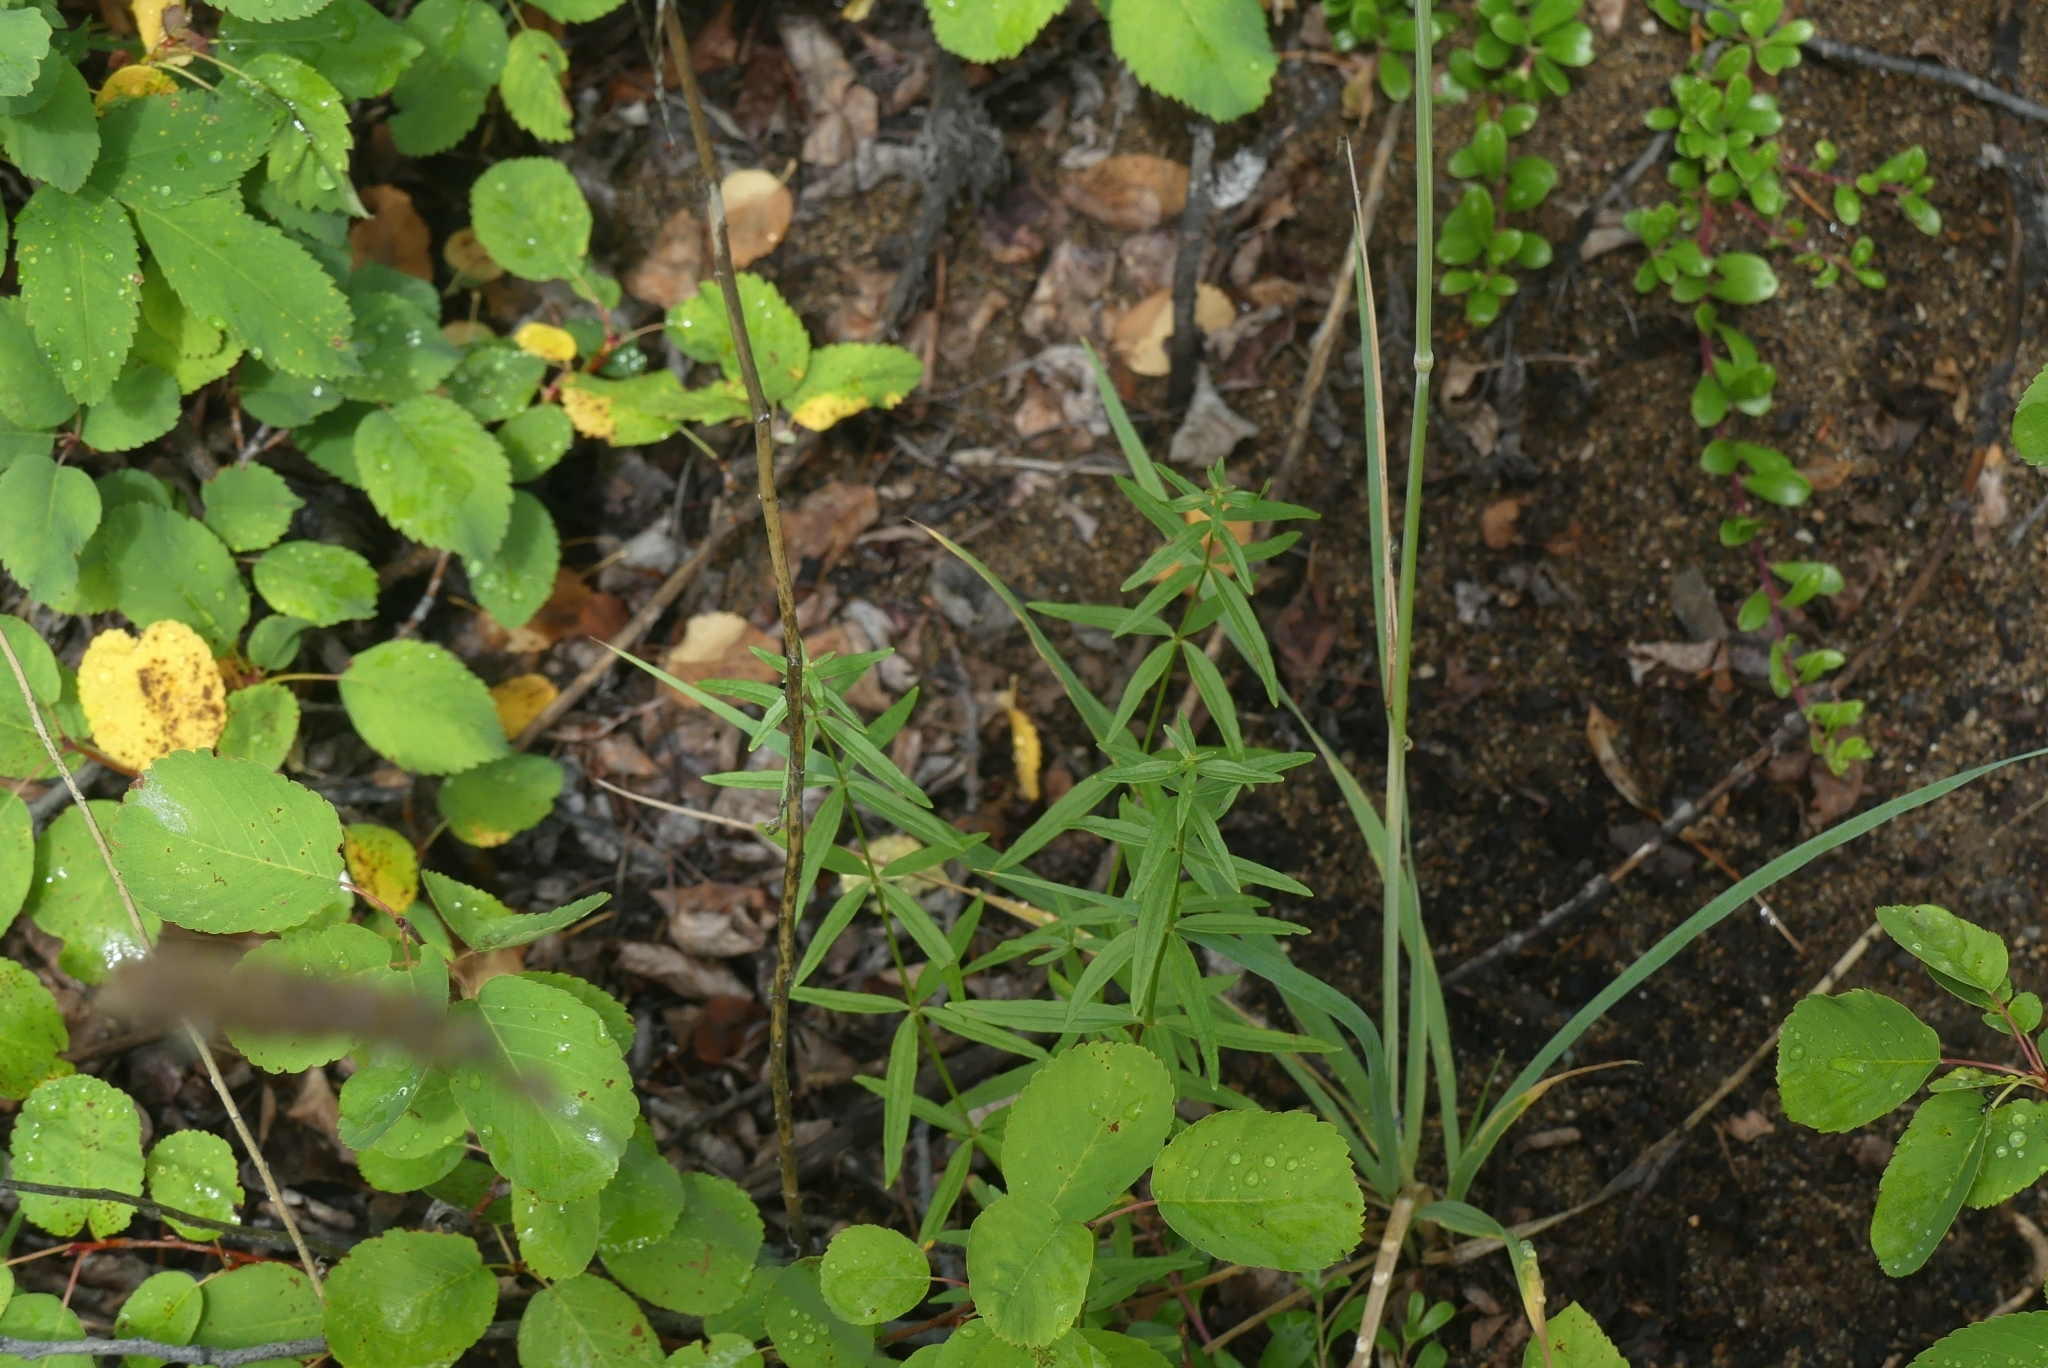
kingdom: Plantae
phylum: Tracheophyta
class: Magnoliopsida
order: Gentianales
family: Rubiaceae
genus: Galium
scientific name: Galium boreale
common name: Northern bedstraw
